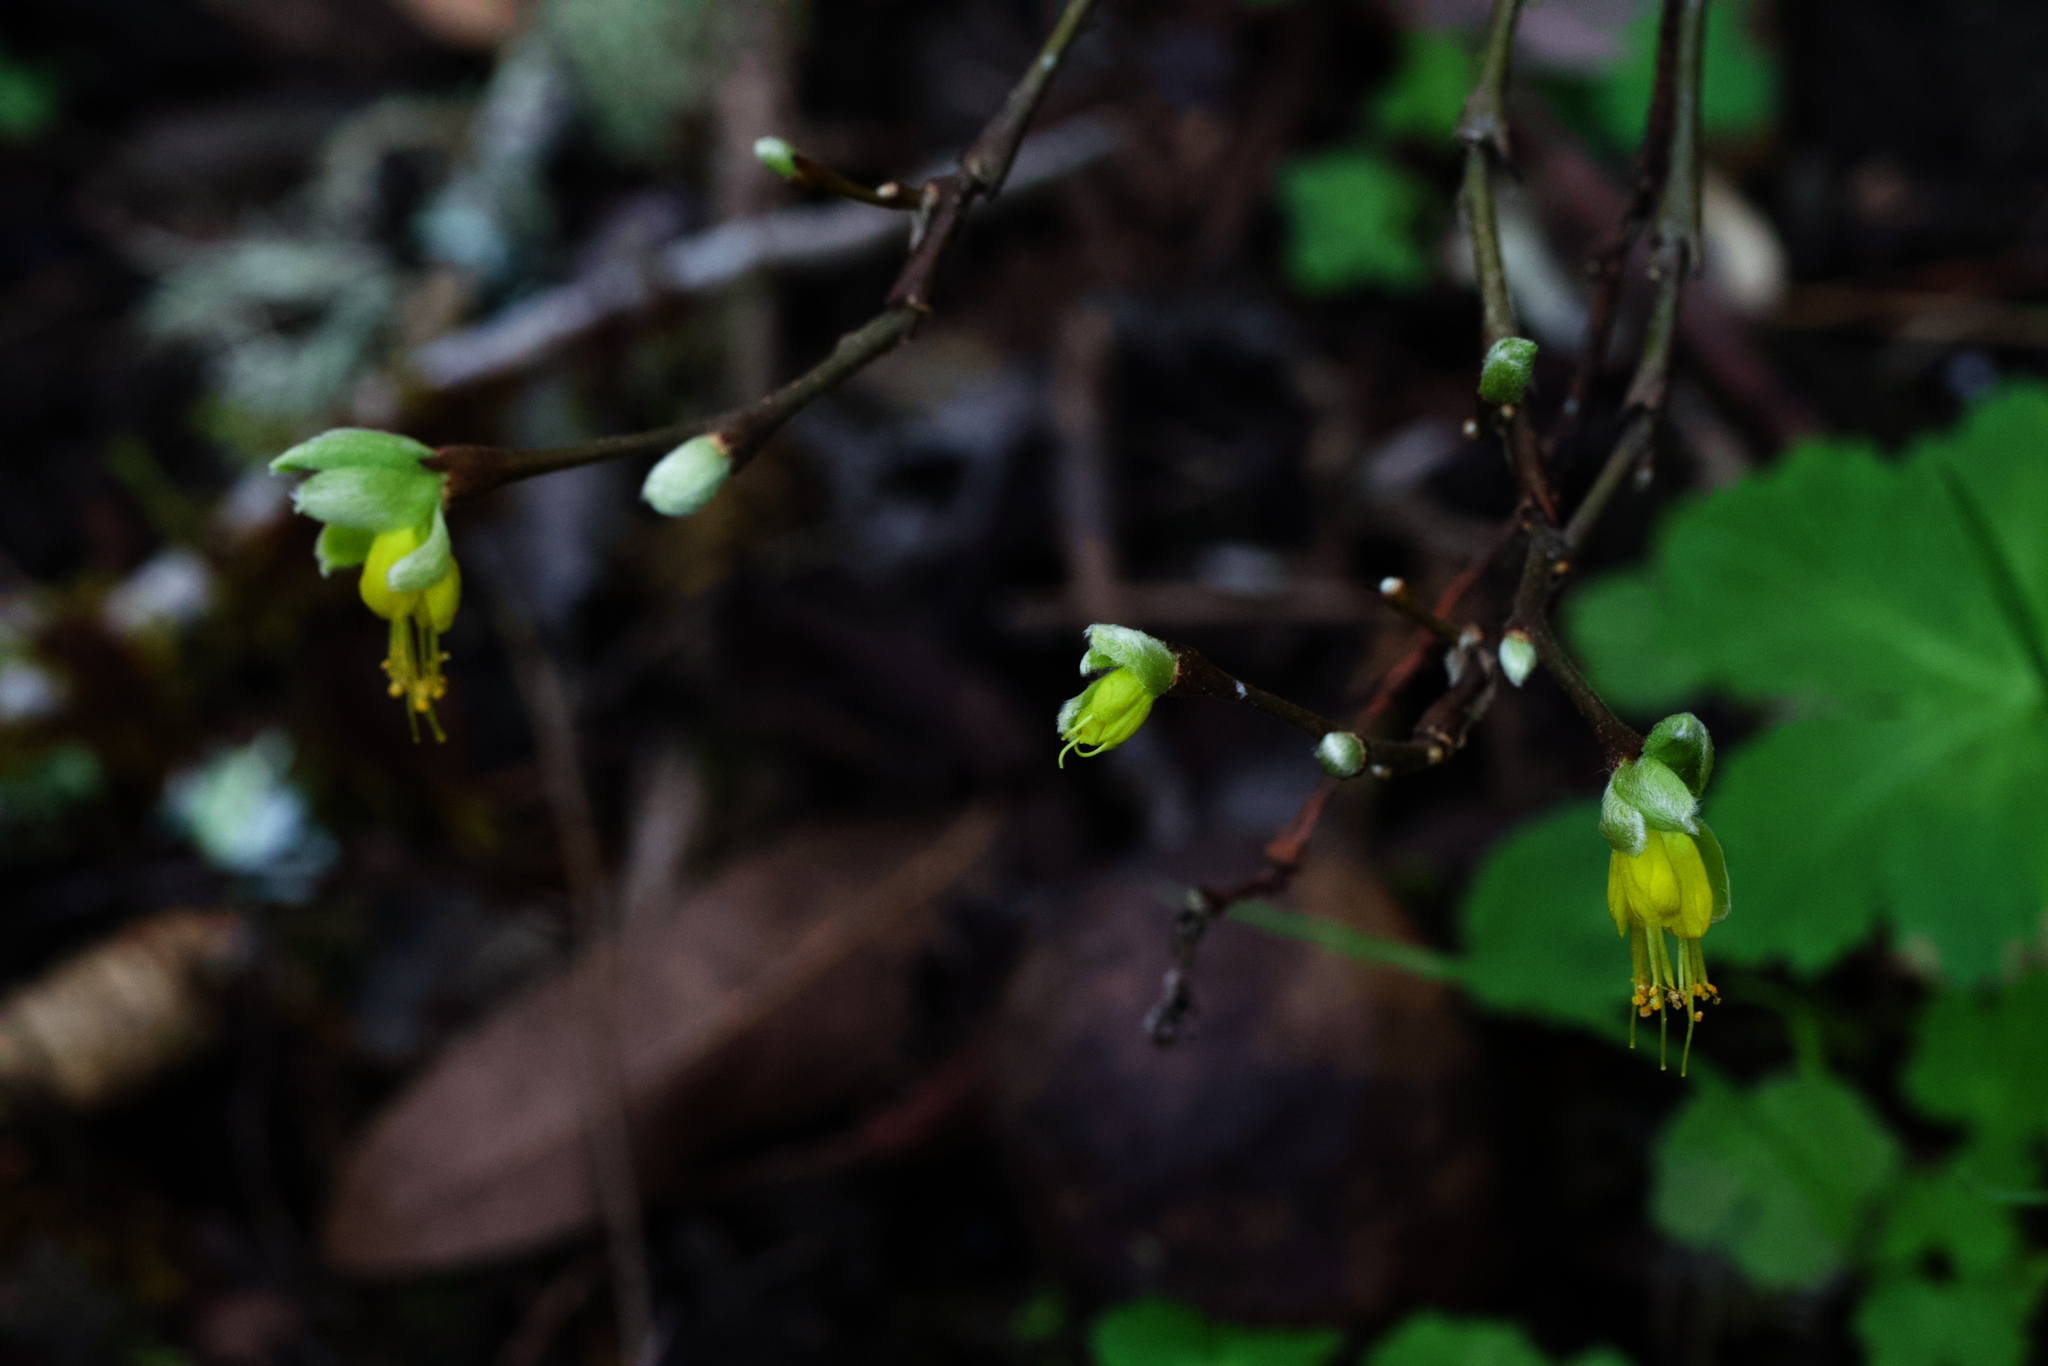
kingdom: Plantae
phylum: Tracheophyta
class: Magnoliopsida
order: Malvales
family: Thymelaeaceae
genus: Dirca
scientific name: Dirca occidentalis
